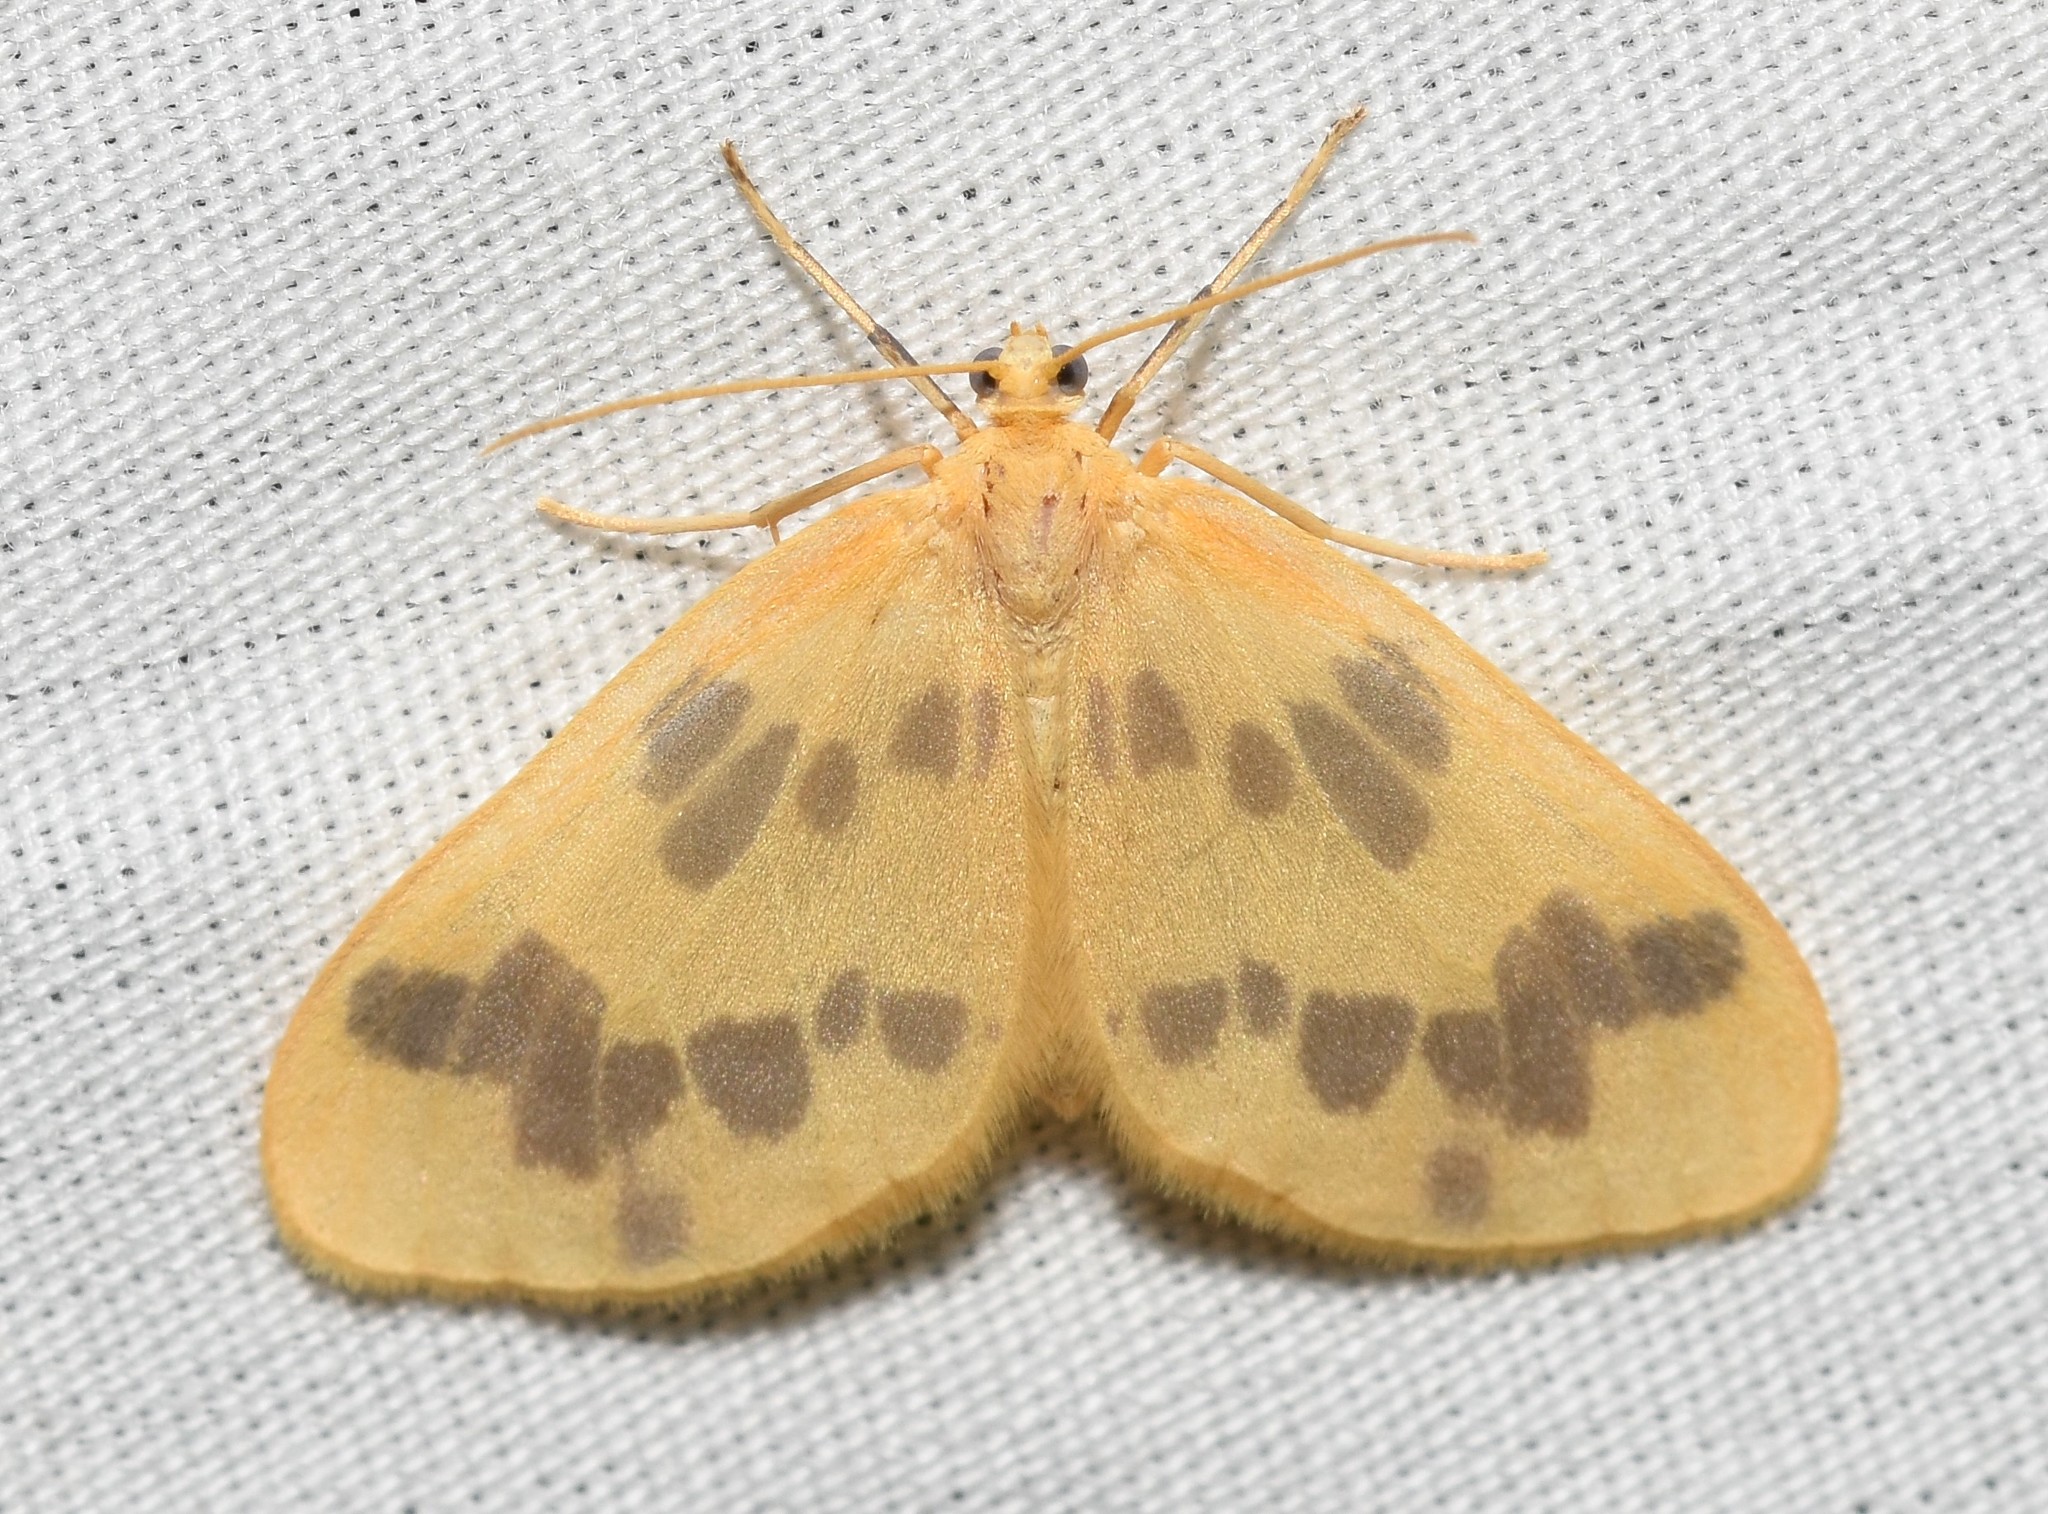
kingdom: Animalia
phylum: Arthropoda
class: Insecta
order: Lepidoptera
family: Geometridae
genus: Eubaphe
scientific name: Eubaphe mendica
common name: Beggar
